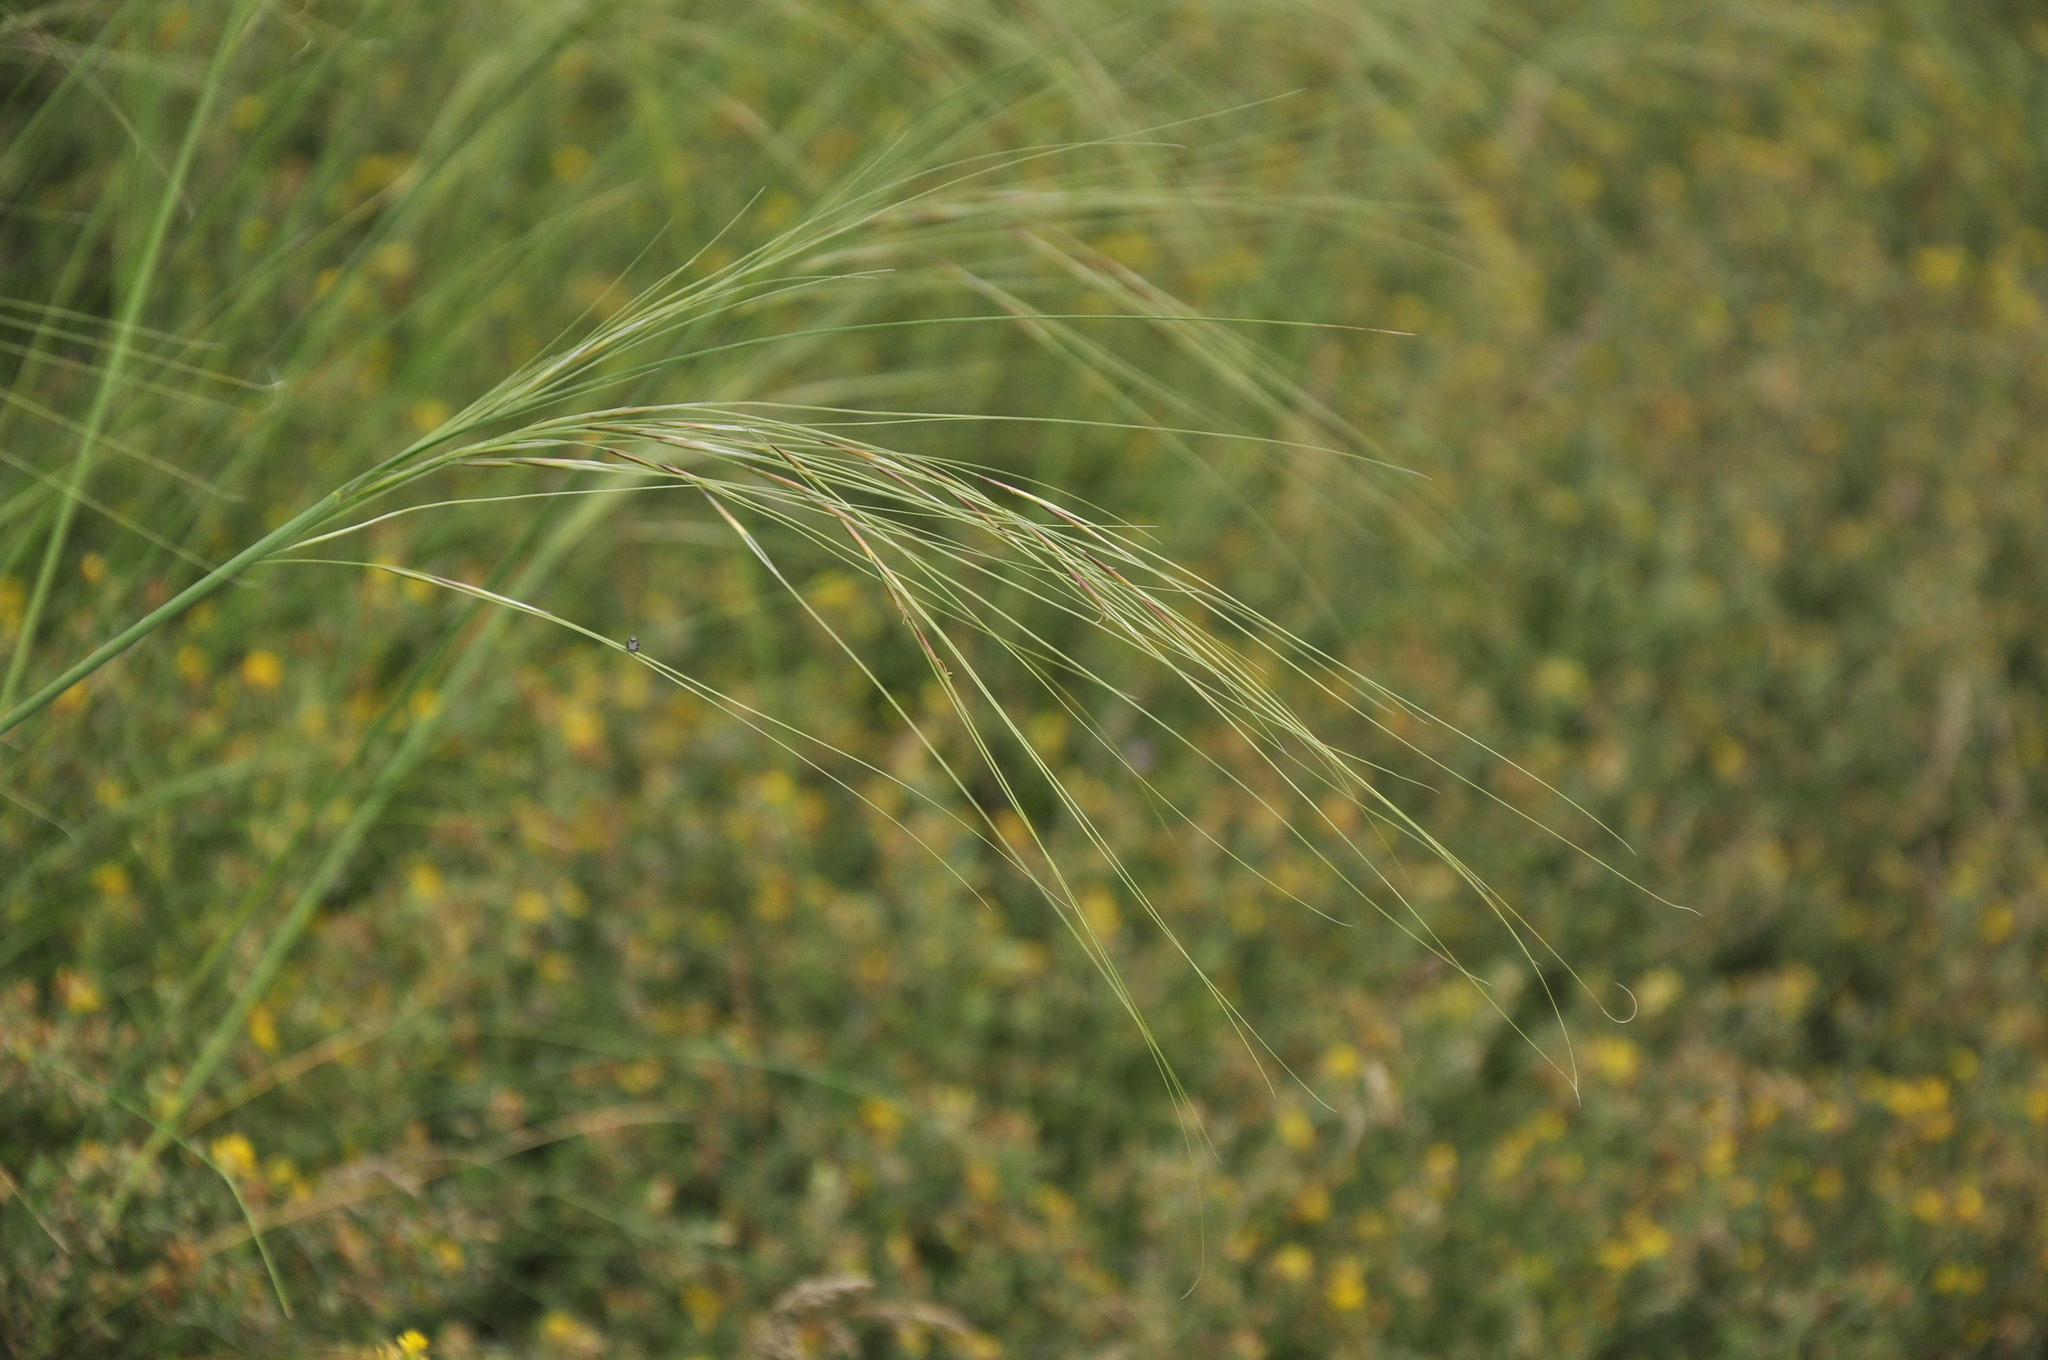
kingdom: Plantae
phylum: Tracheophyta
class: Liliopsida
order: Poales
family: Poaceae
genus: Stipa
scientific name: Stipa capillata
